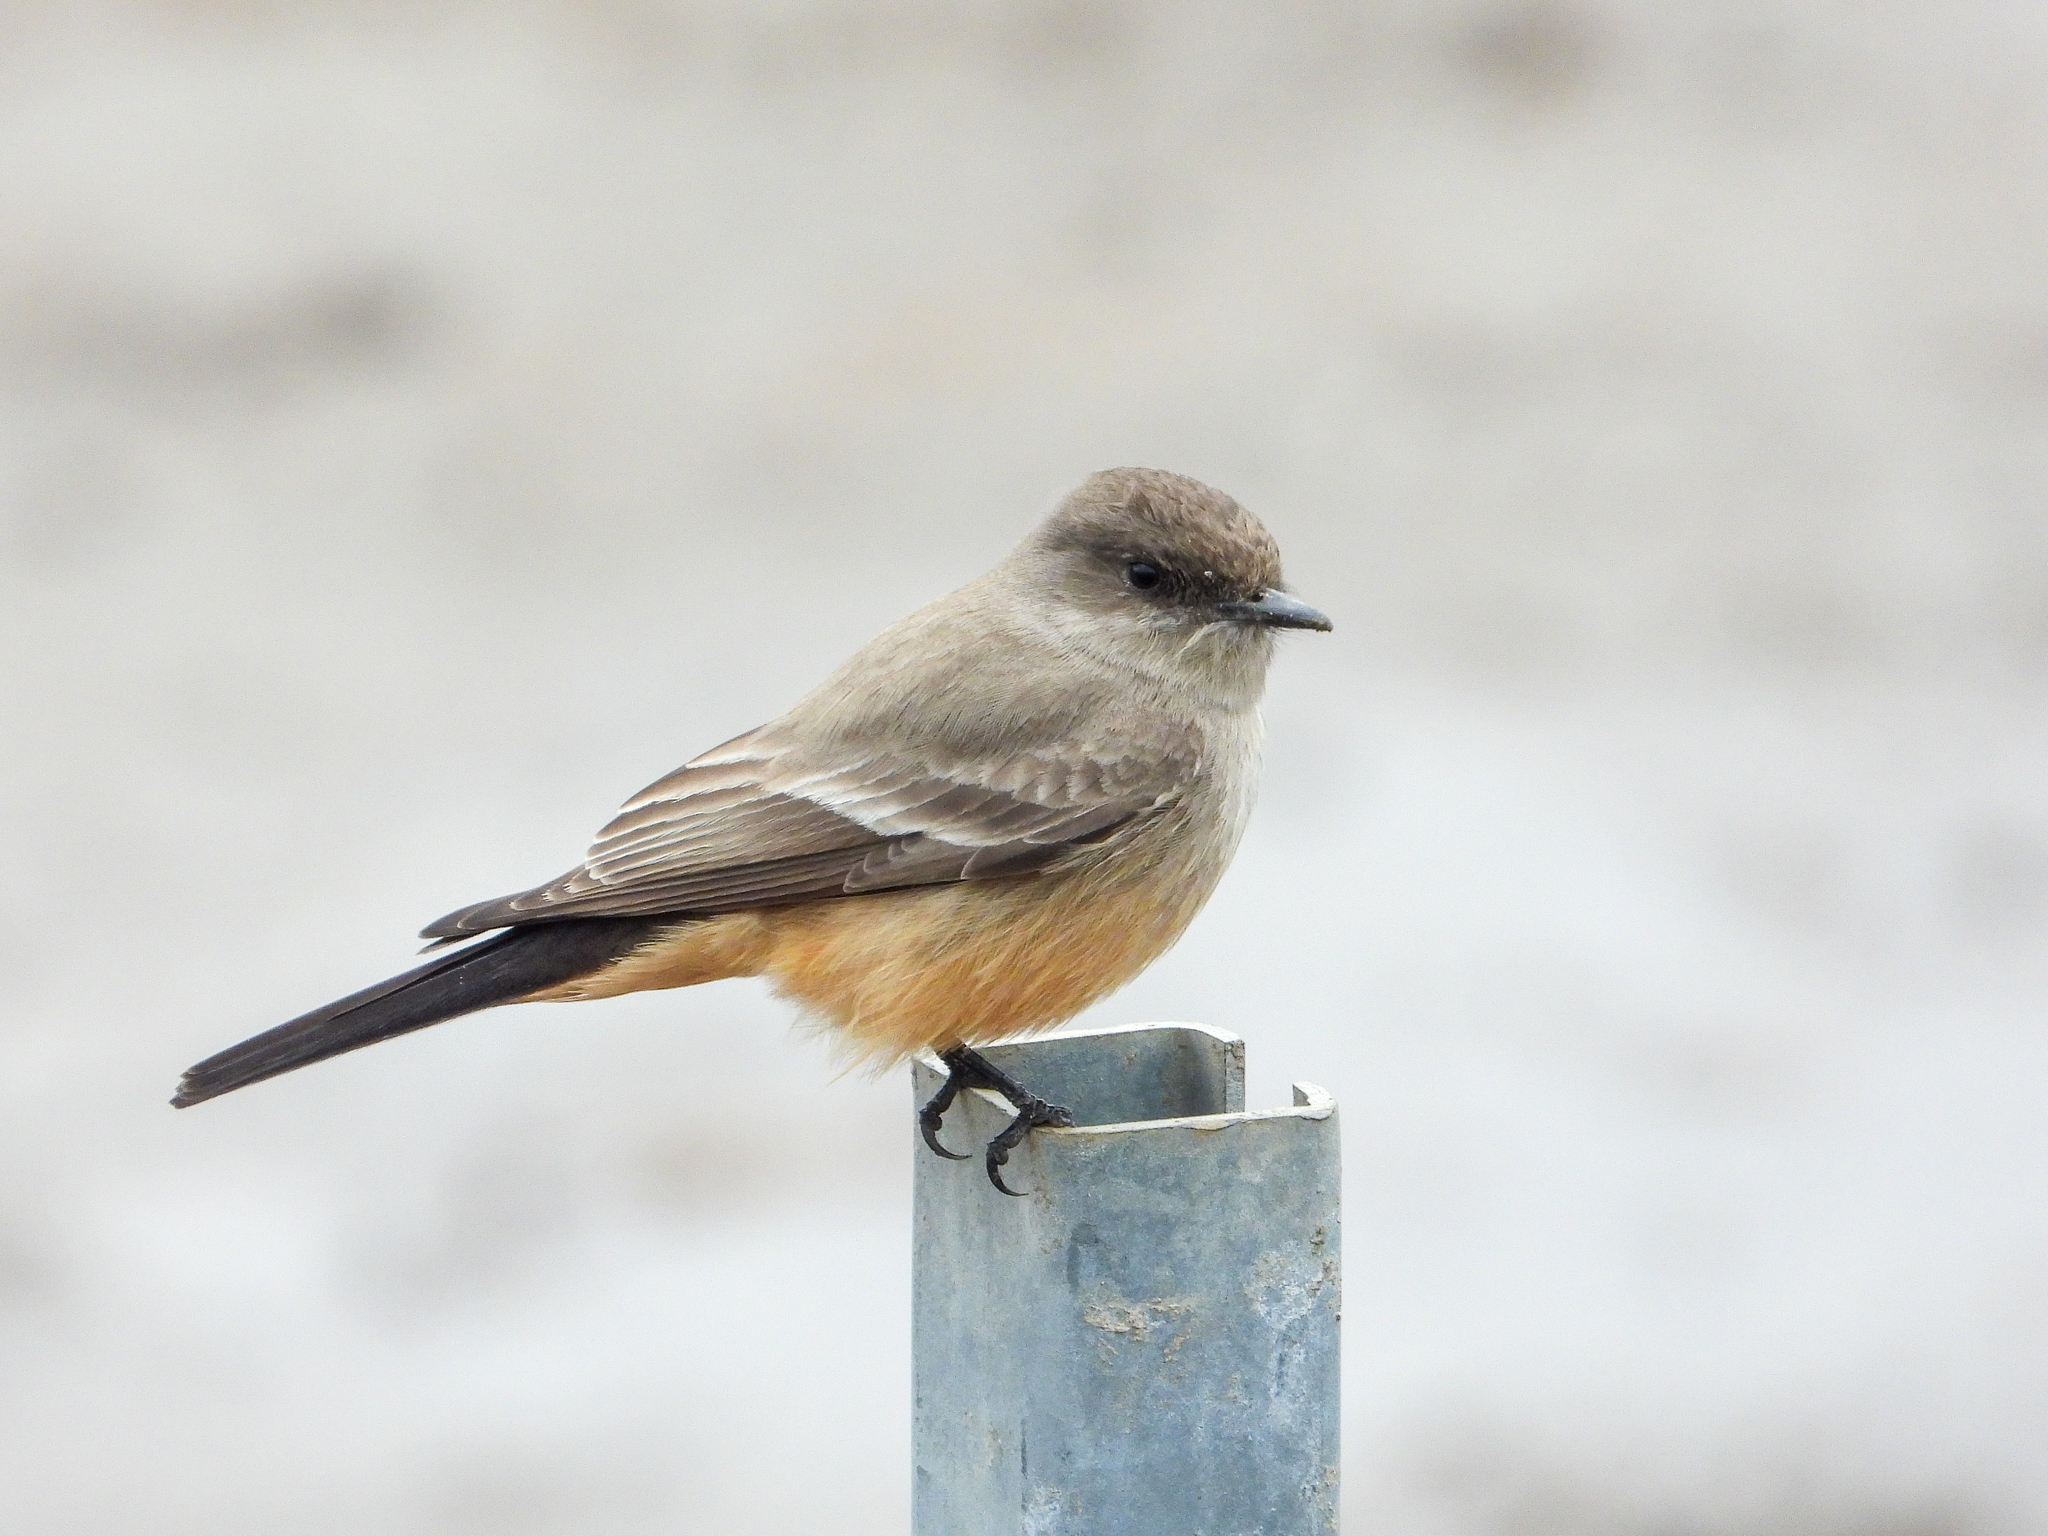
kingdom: Animalia
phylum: Chordata
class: Aves
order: Passeriformes
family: Tyrannidae
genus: Sayornis
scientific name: Sayornis saya
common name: Say's phoebe
